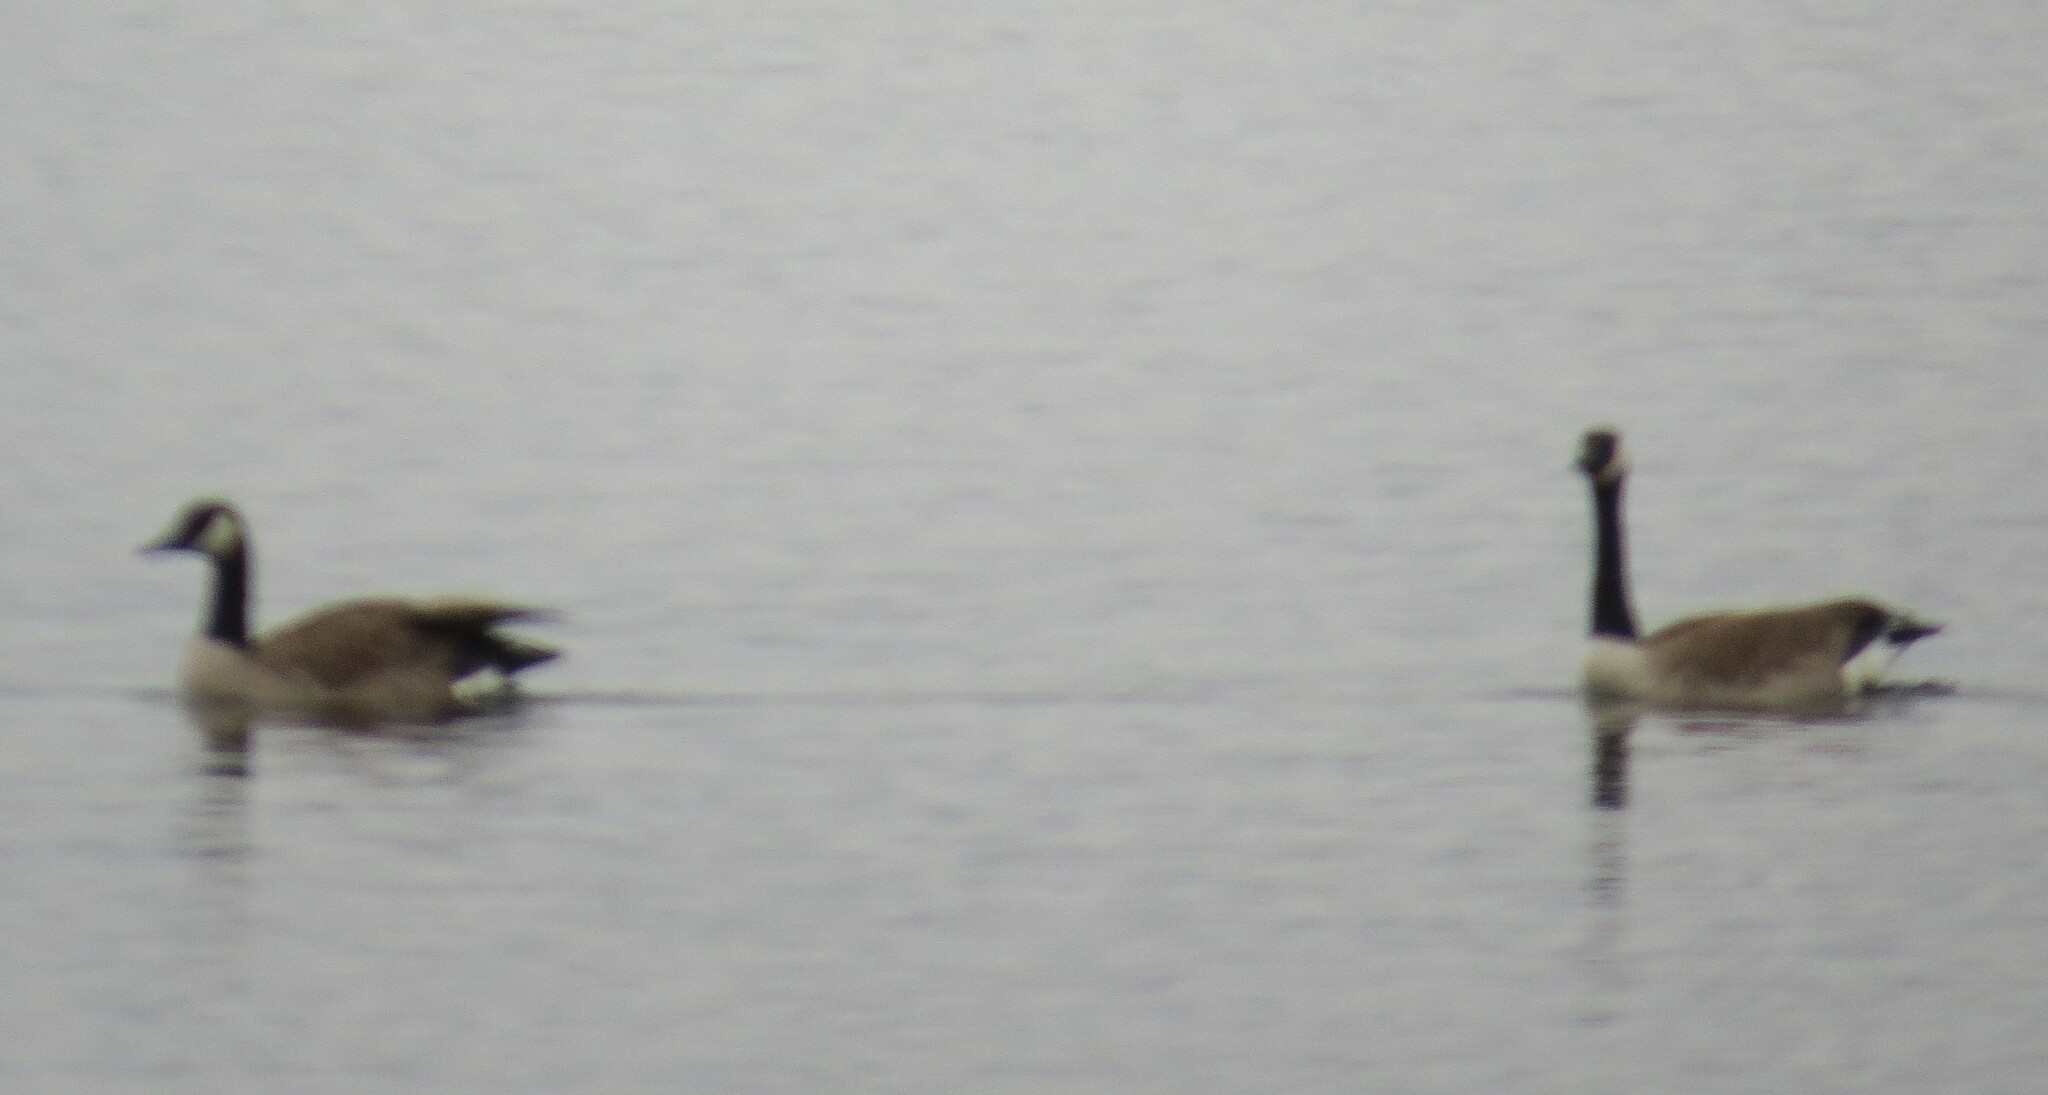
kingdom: Animalia
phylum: Chordata
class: Aves
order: Anseriformes
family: Anatidae
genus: Branta
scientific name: Branta canadensis
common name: Canada goose
